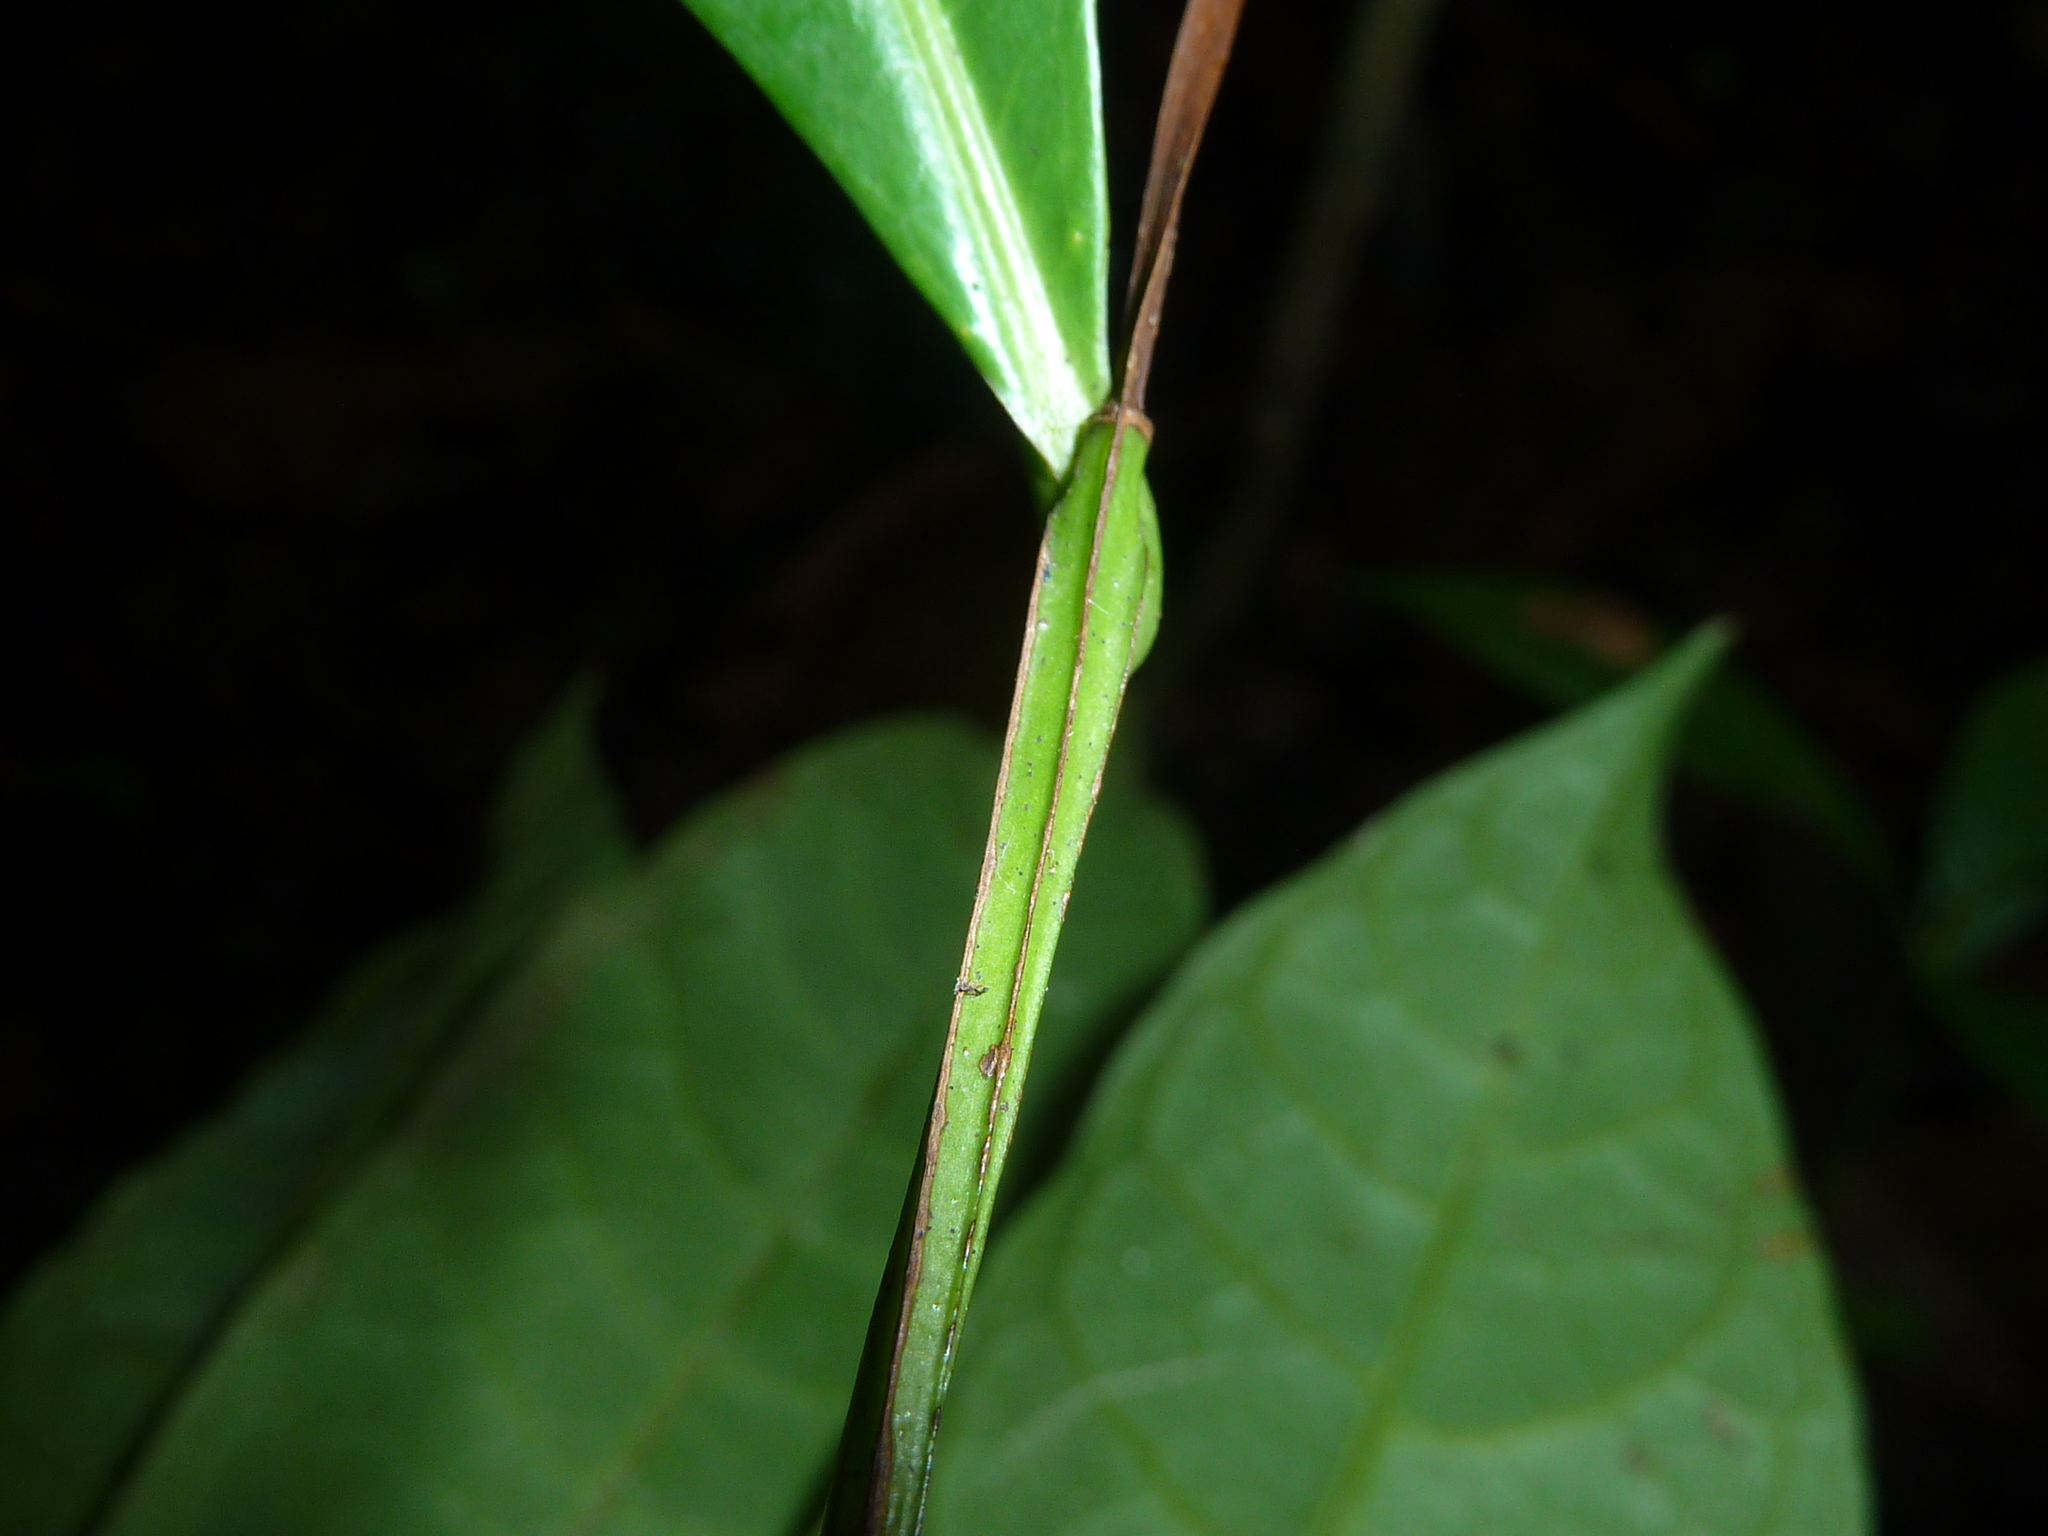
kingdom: Plantae
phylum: Tracheophyta
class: Magnoliopsida
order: Malpighiales
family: Humiriaceae
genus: Vantanea
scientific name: Vantanea barbourii
